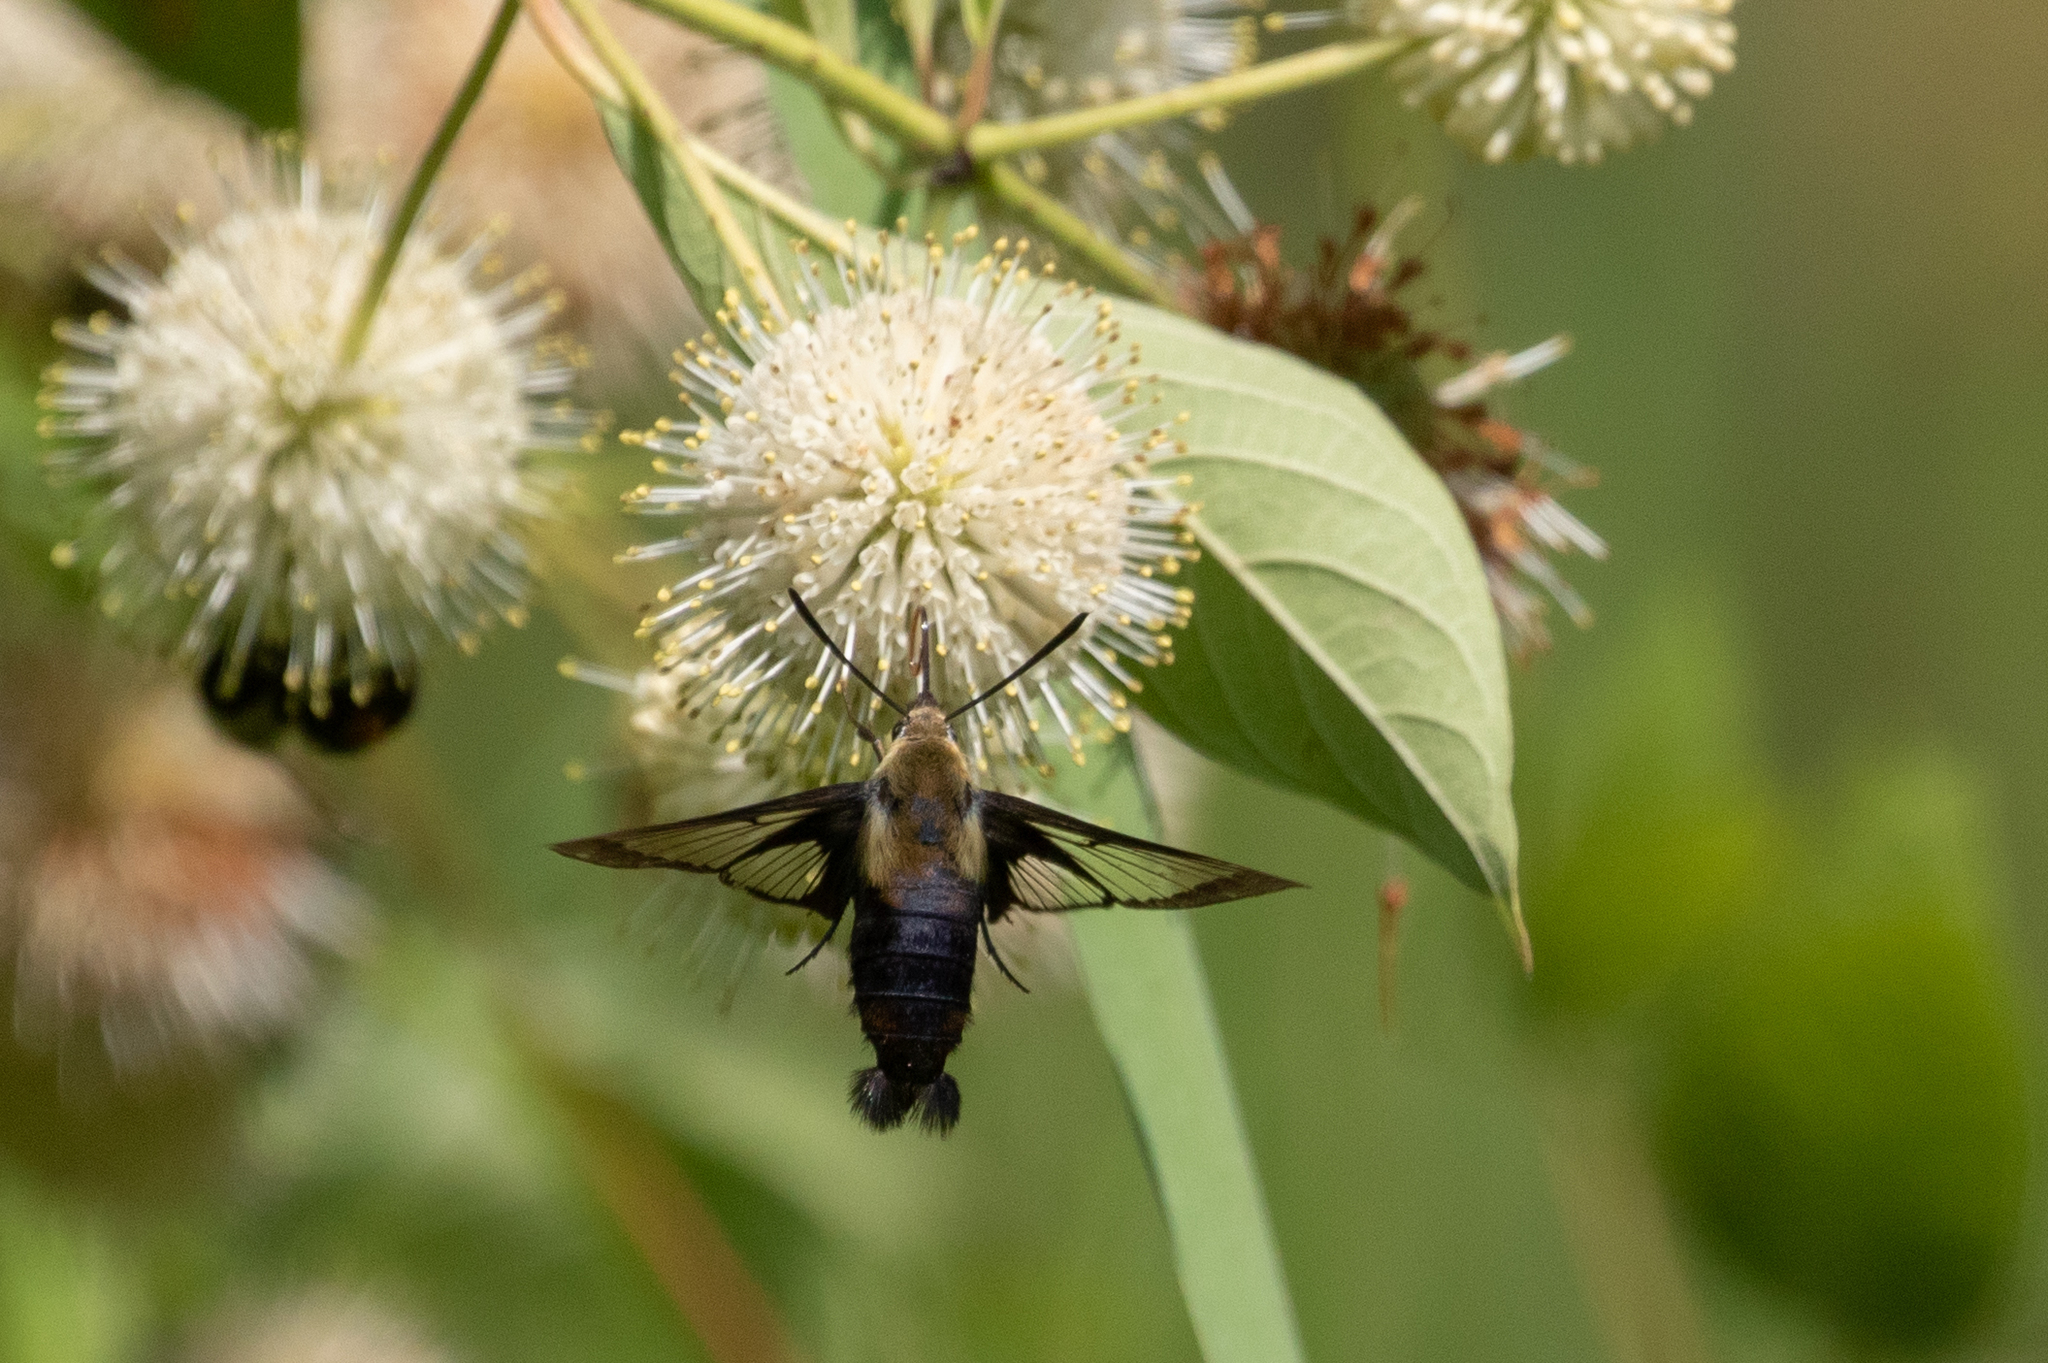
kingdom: Animalia
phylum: Arthropoda
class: Insecta
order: Lepidoptera
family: Sphingidae
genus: Hemaris
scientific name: Hemaris diffinis
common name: Bumblebee moth
